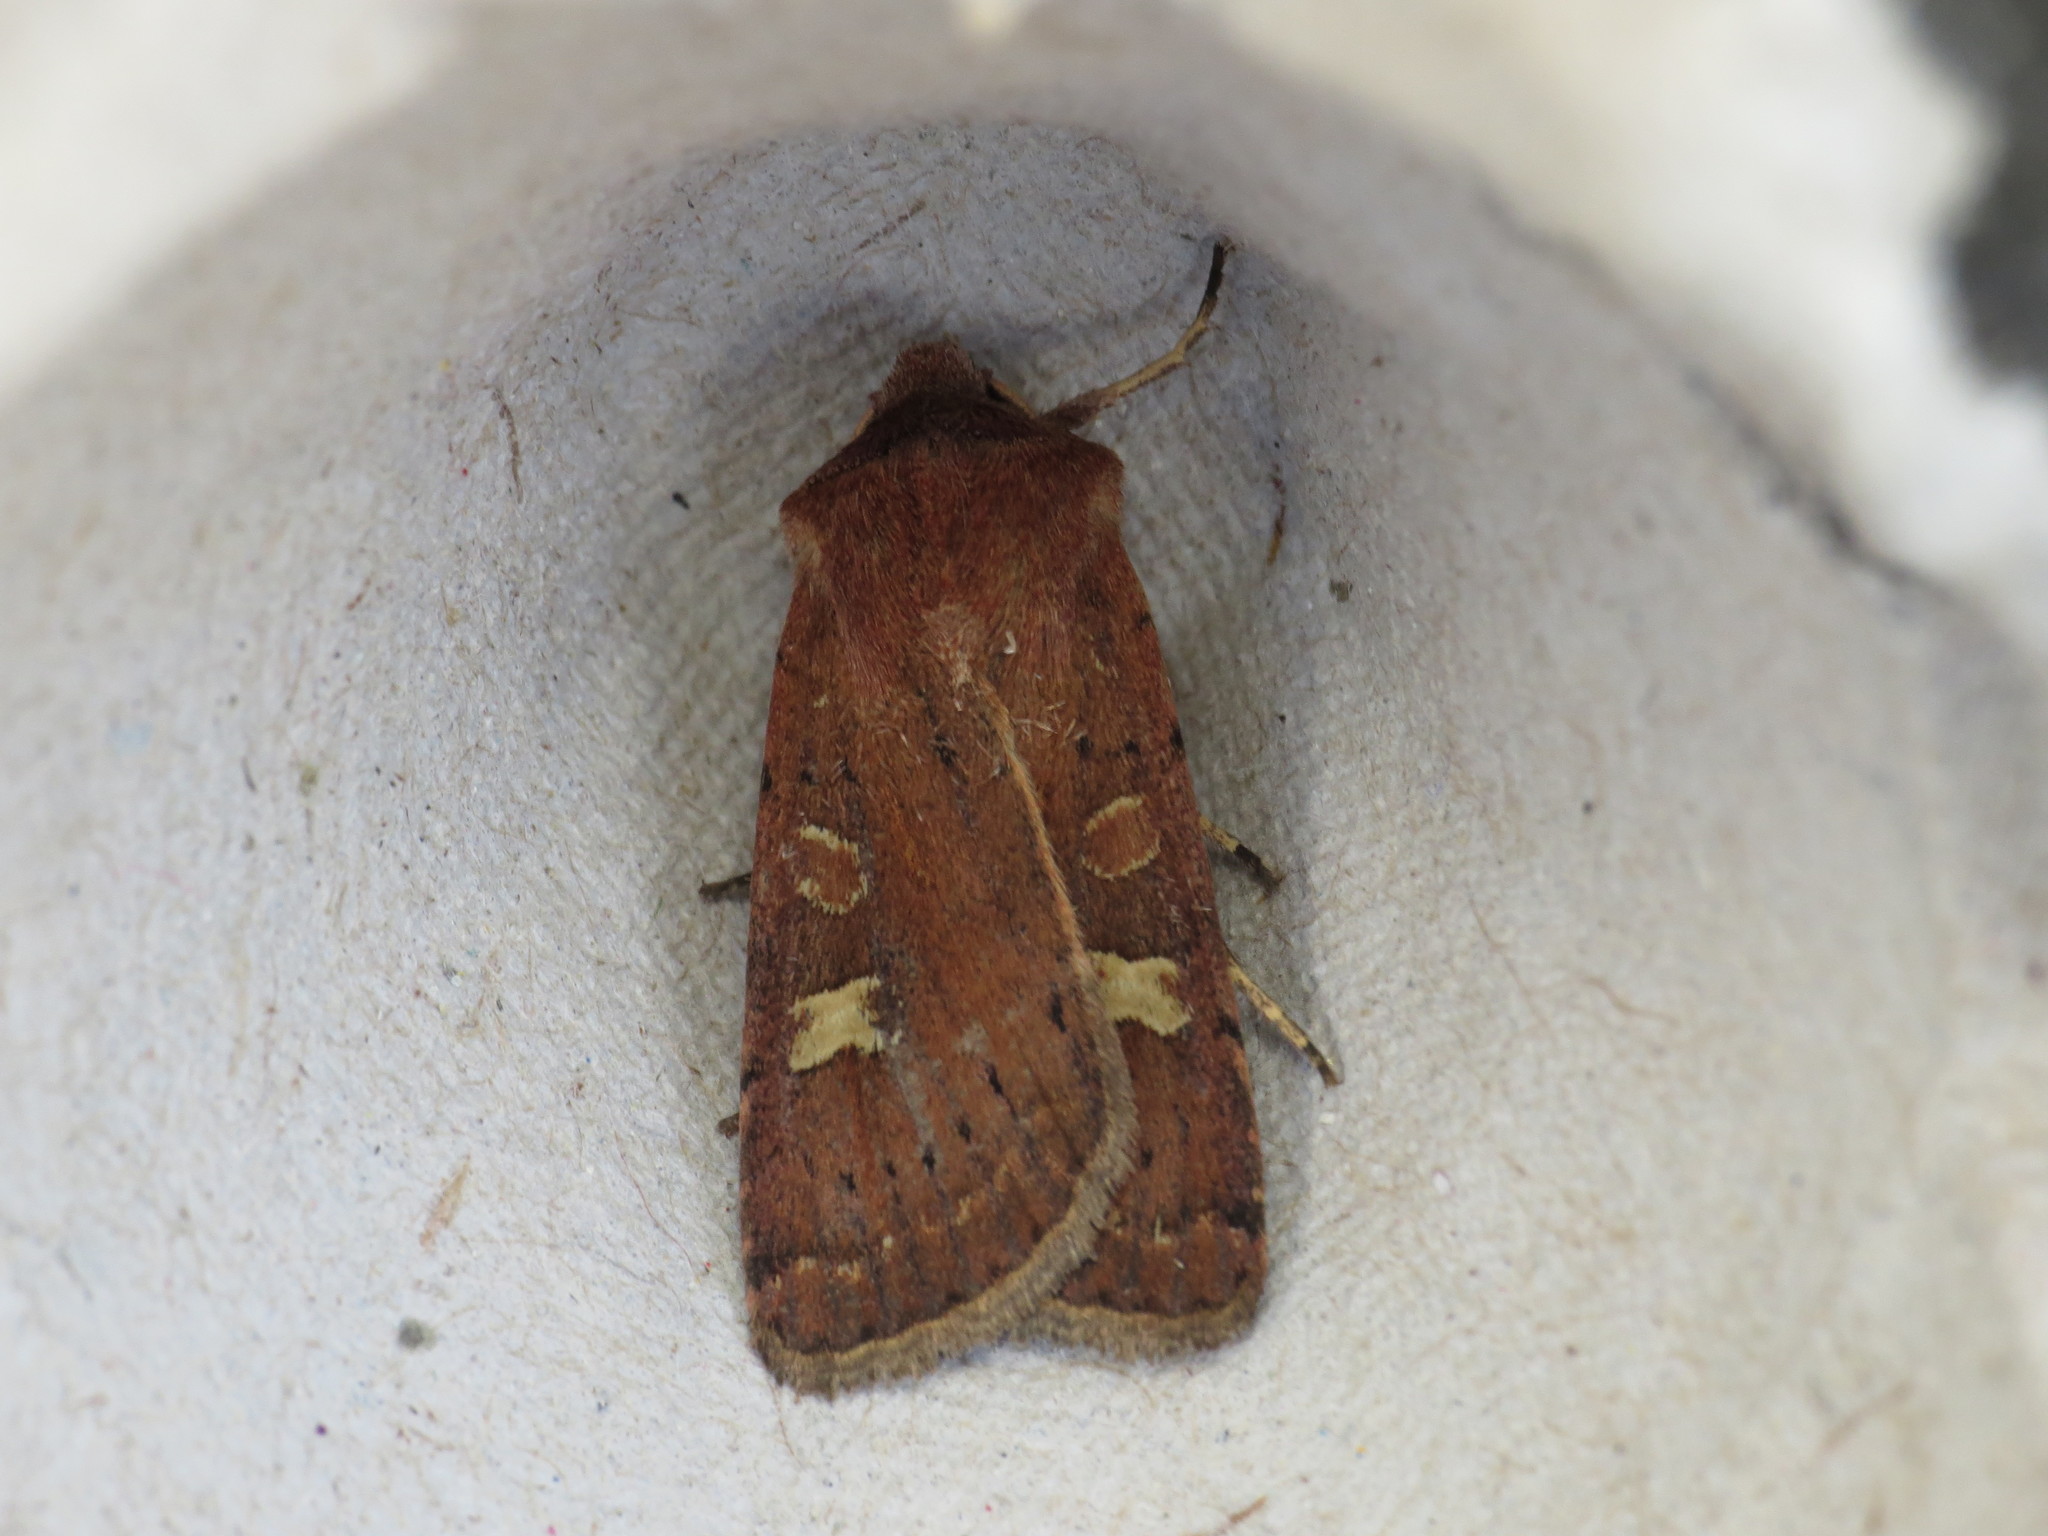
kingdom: Animalia
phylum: Arthropoda
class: Insecta
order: Lepidoptera
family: Noctuidae
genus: Xestia
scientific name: Xestia xanthographa
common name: Square-spot rustic
